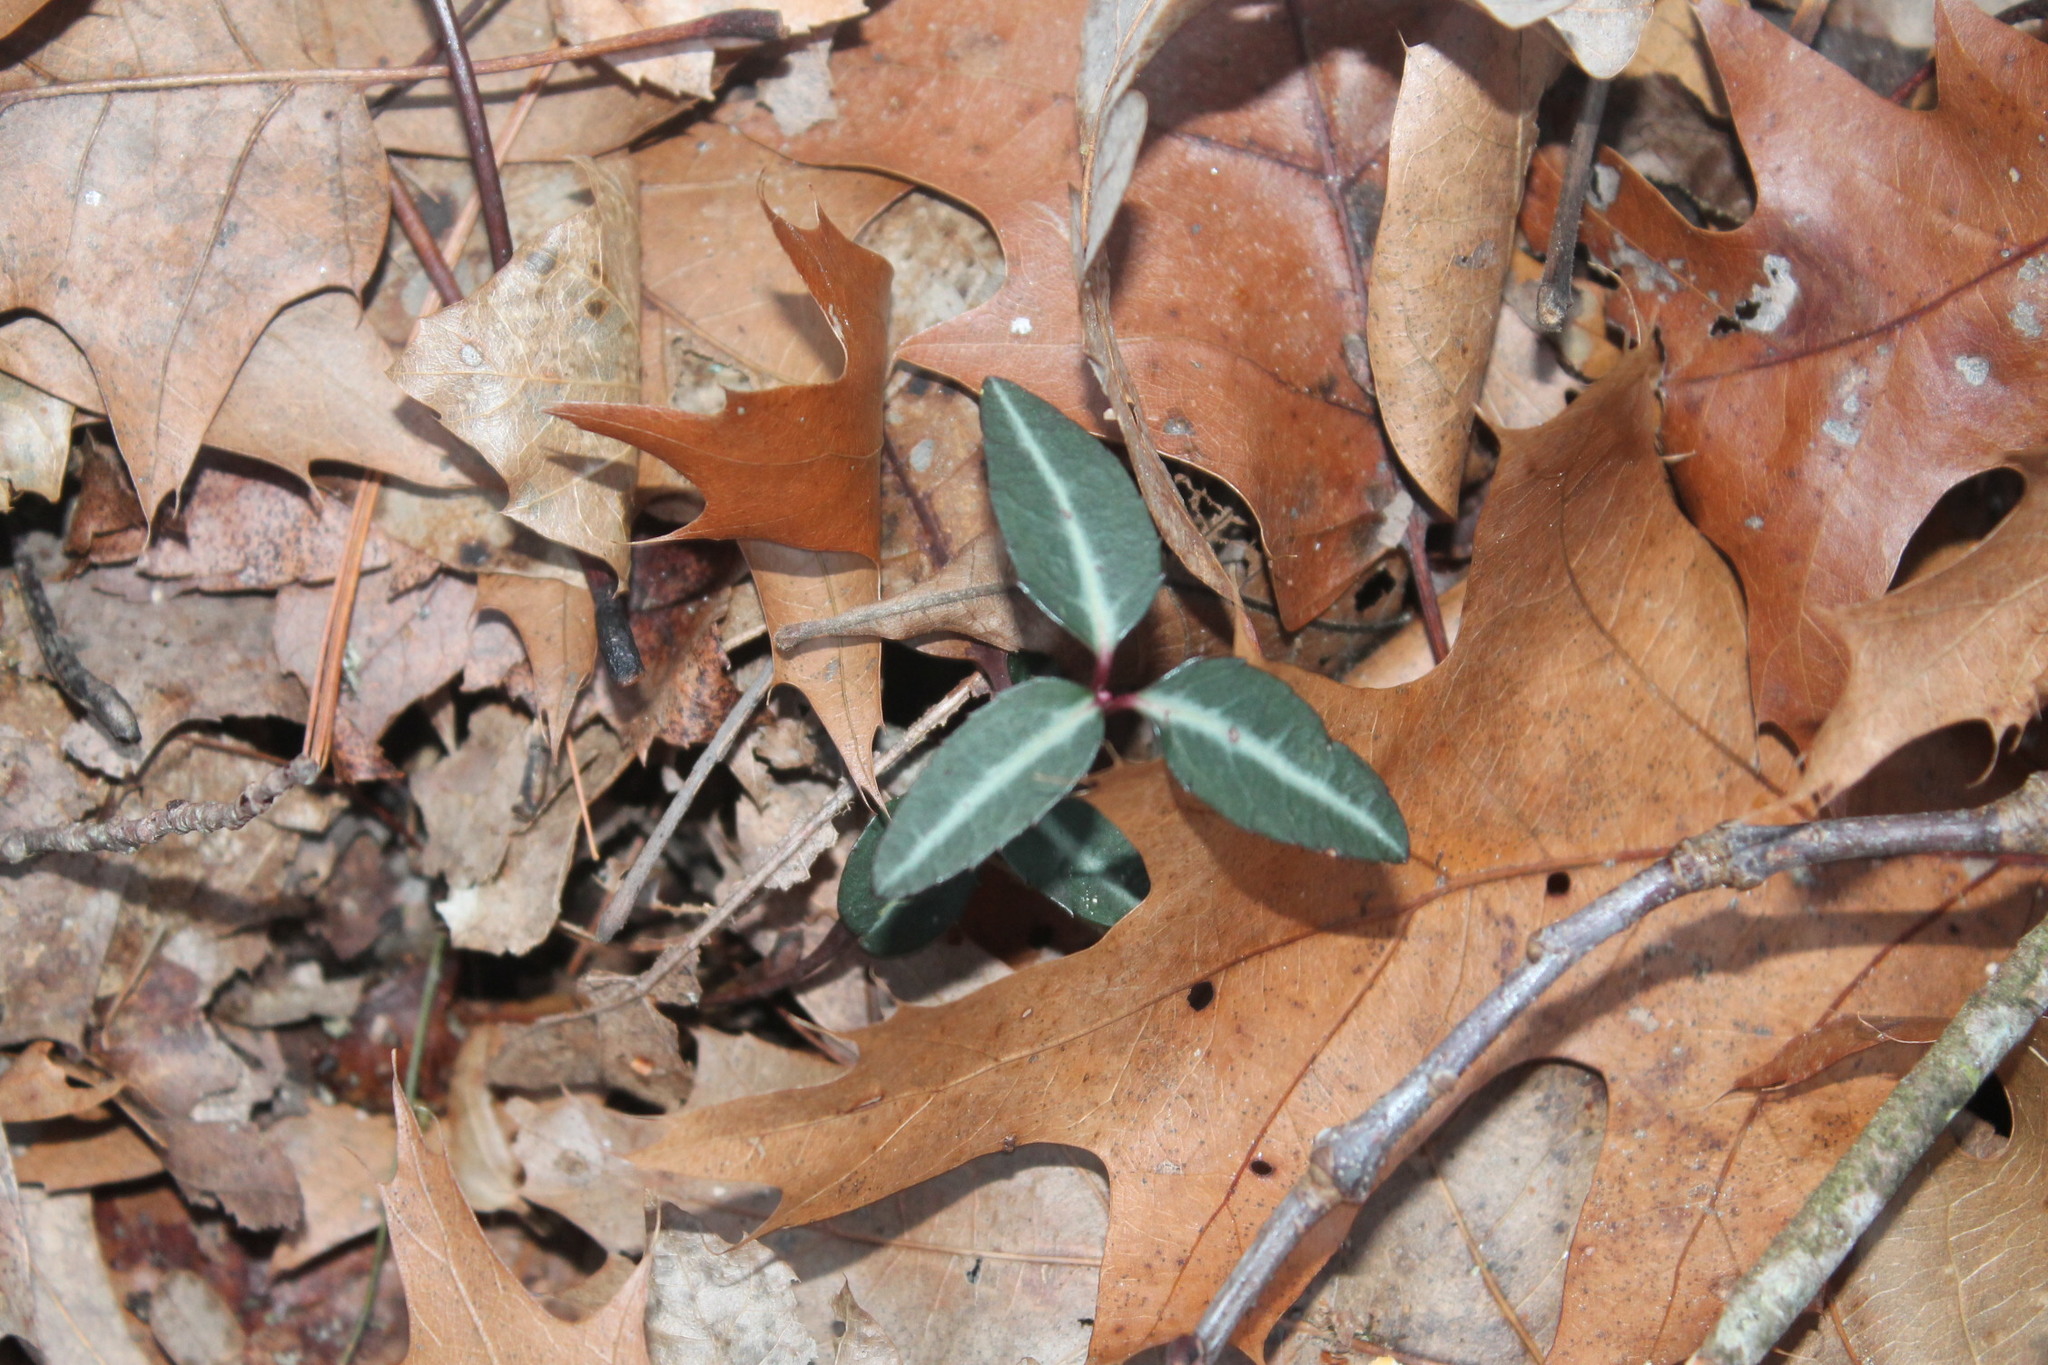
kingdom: Plantae
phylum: Tracheophyta
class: Magnoliopsida
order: Ericales
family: Ericaceae
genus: Chimaphila
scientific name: Chimaphila maculata
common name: Spotted pipsissewa
